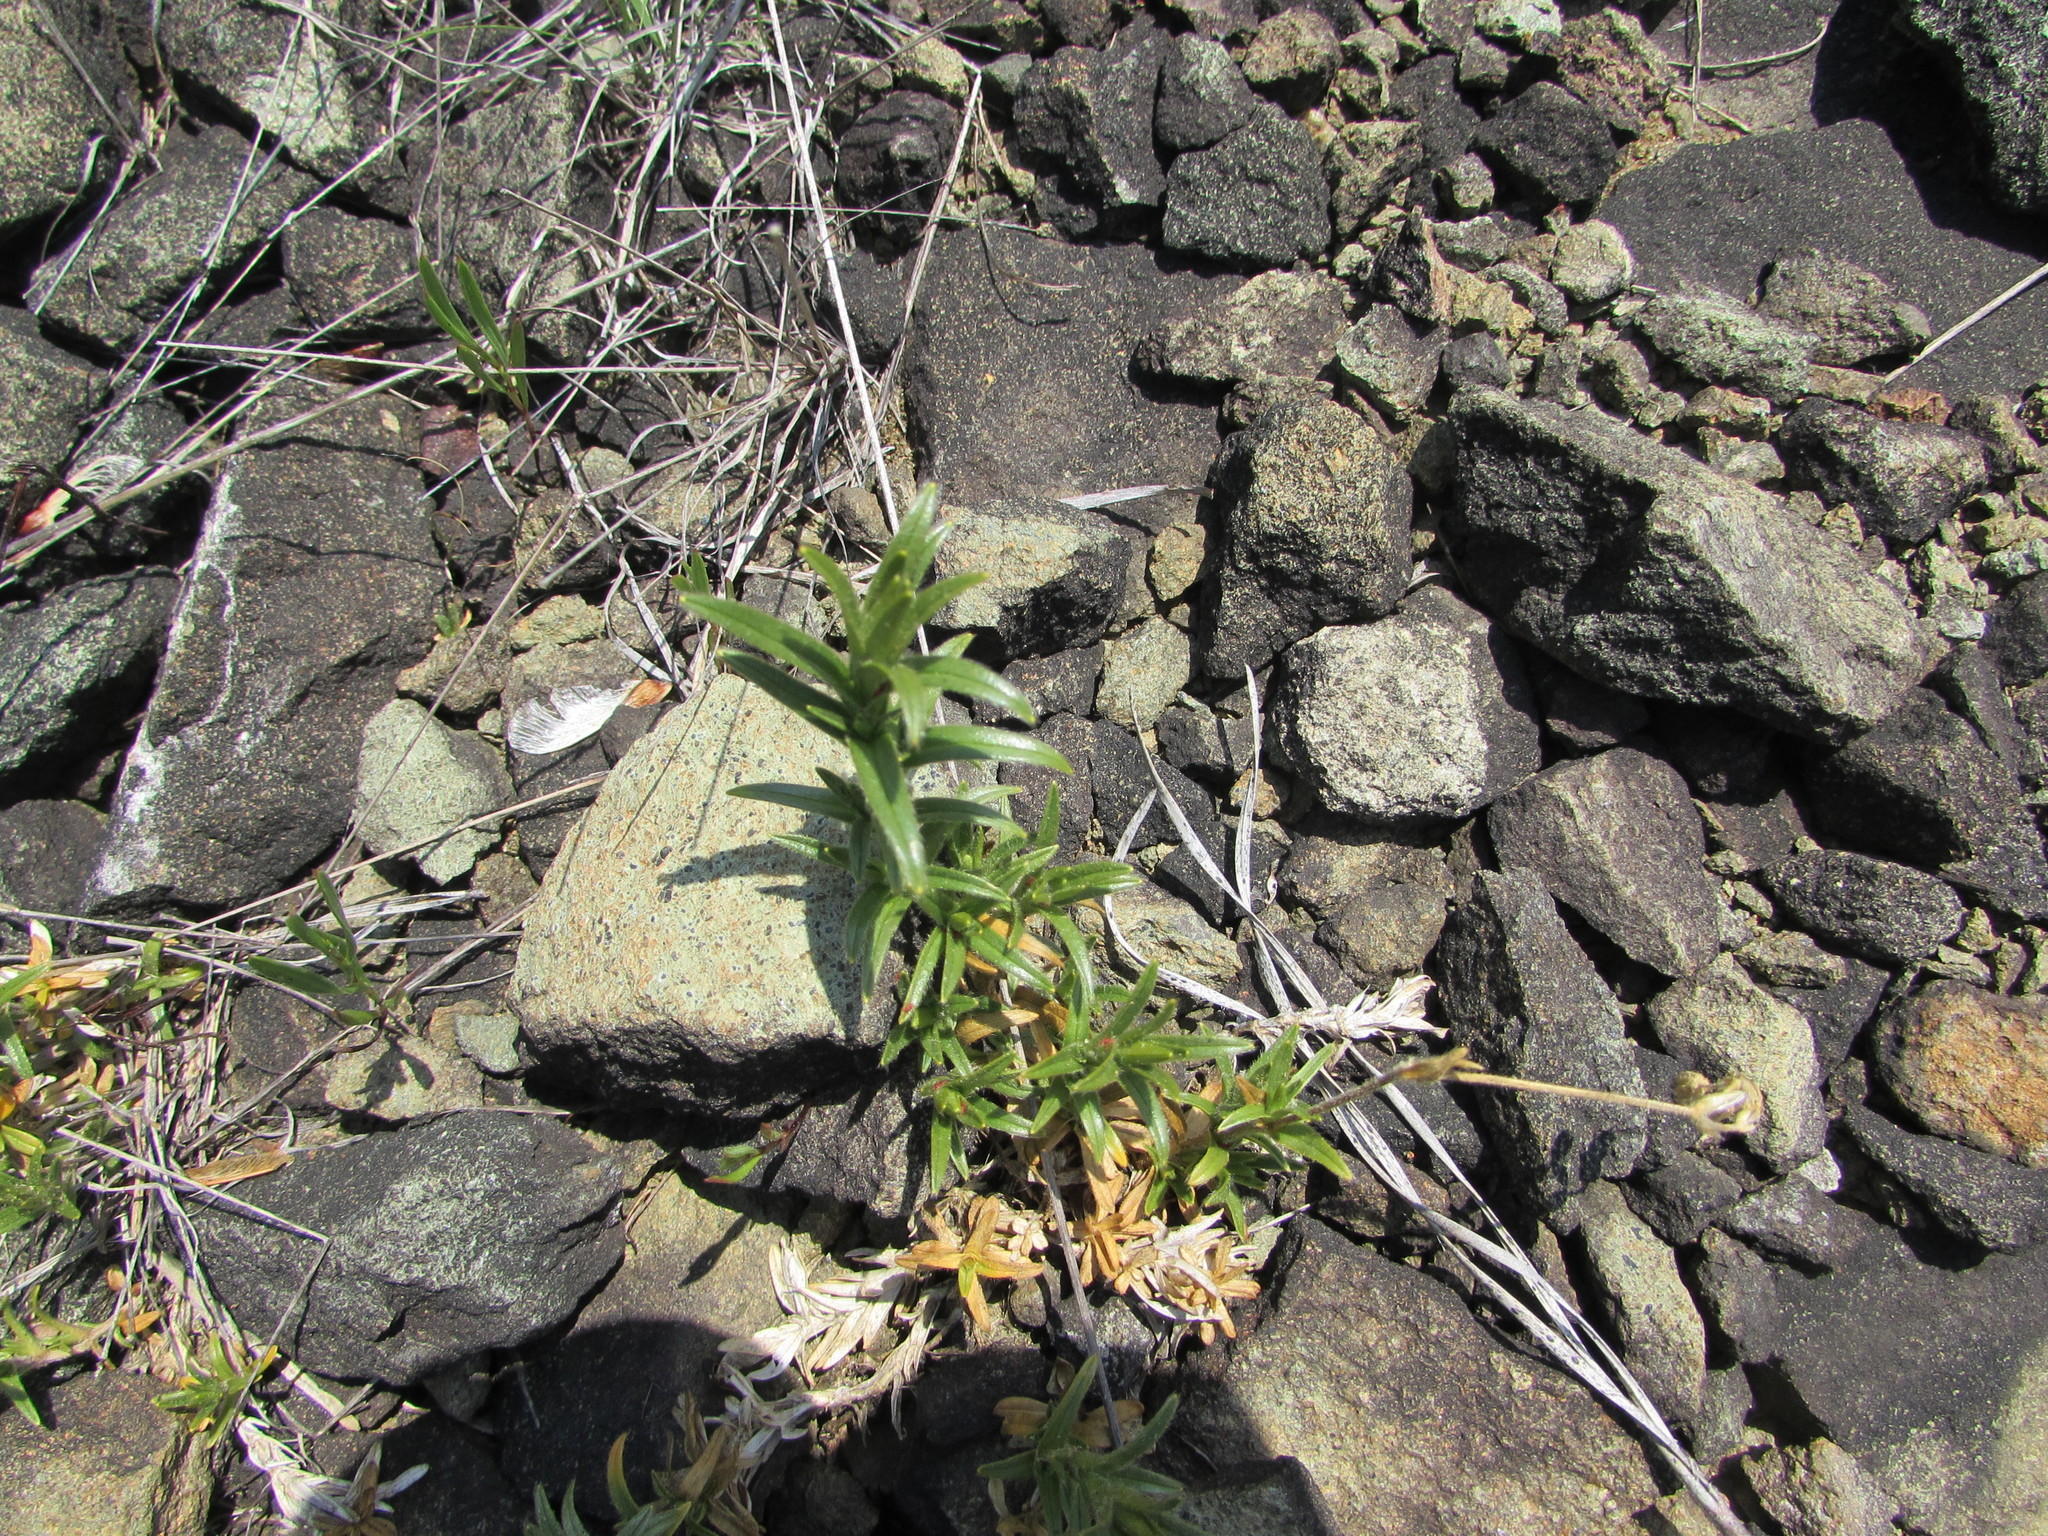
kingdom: Plantae
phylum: Tracheophyta
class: Magnoliopsida
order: Caryophyllales
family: Caryophyllaceae
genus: Cerastium
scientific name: Cerastium velutinum
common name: Barren chickweed
